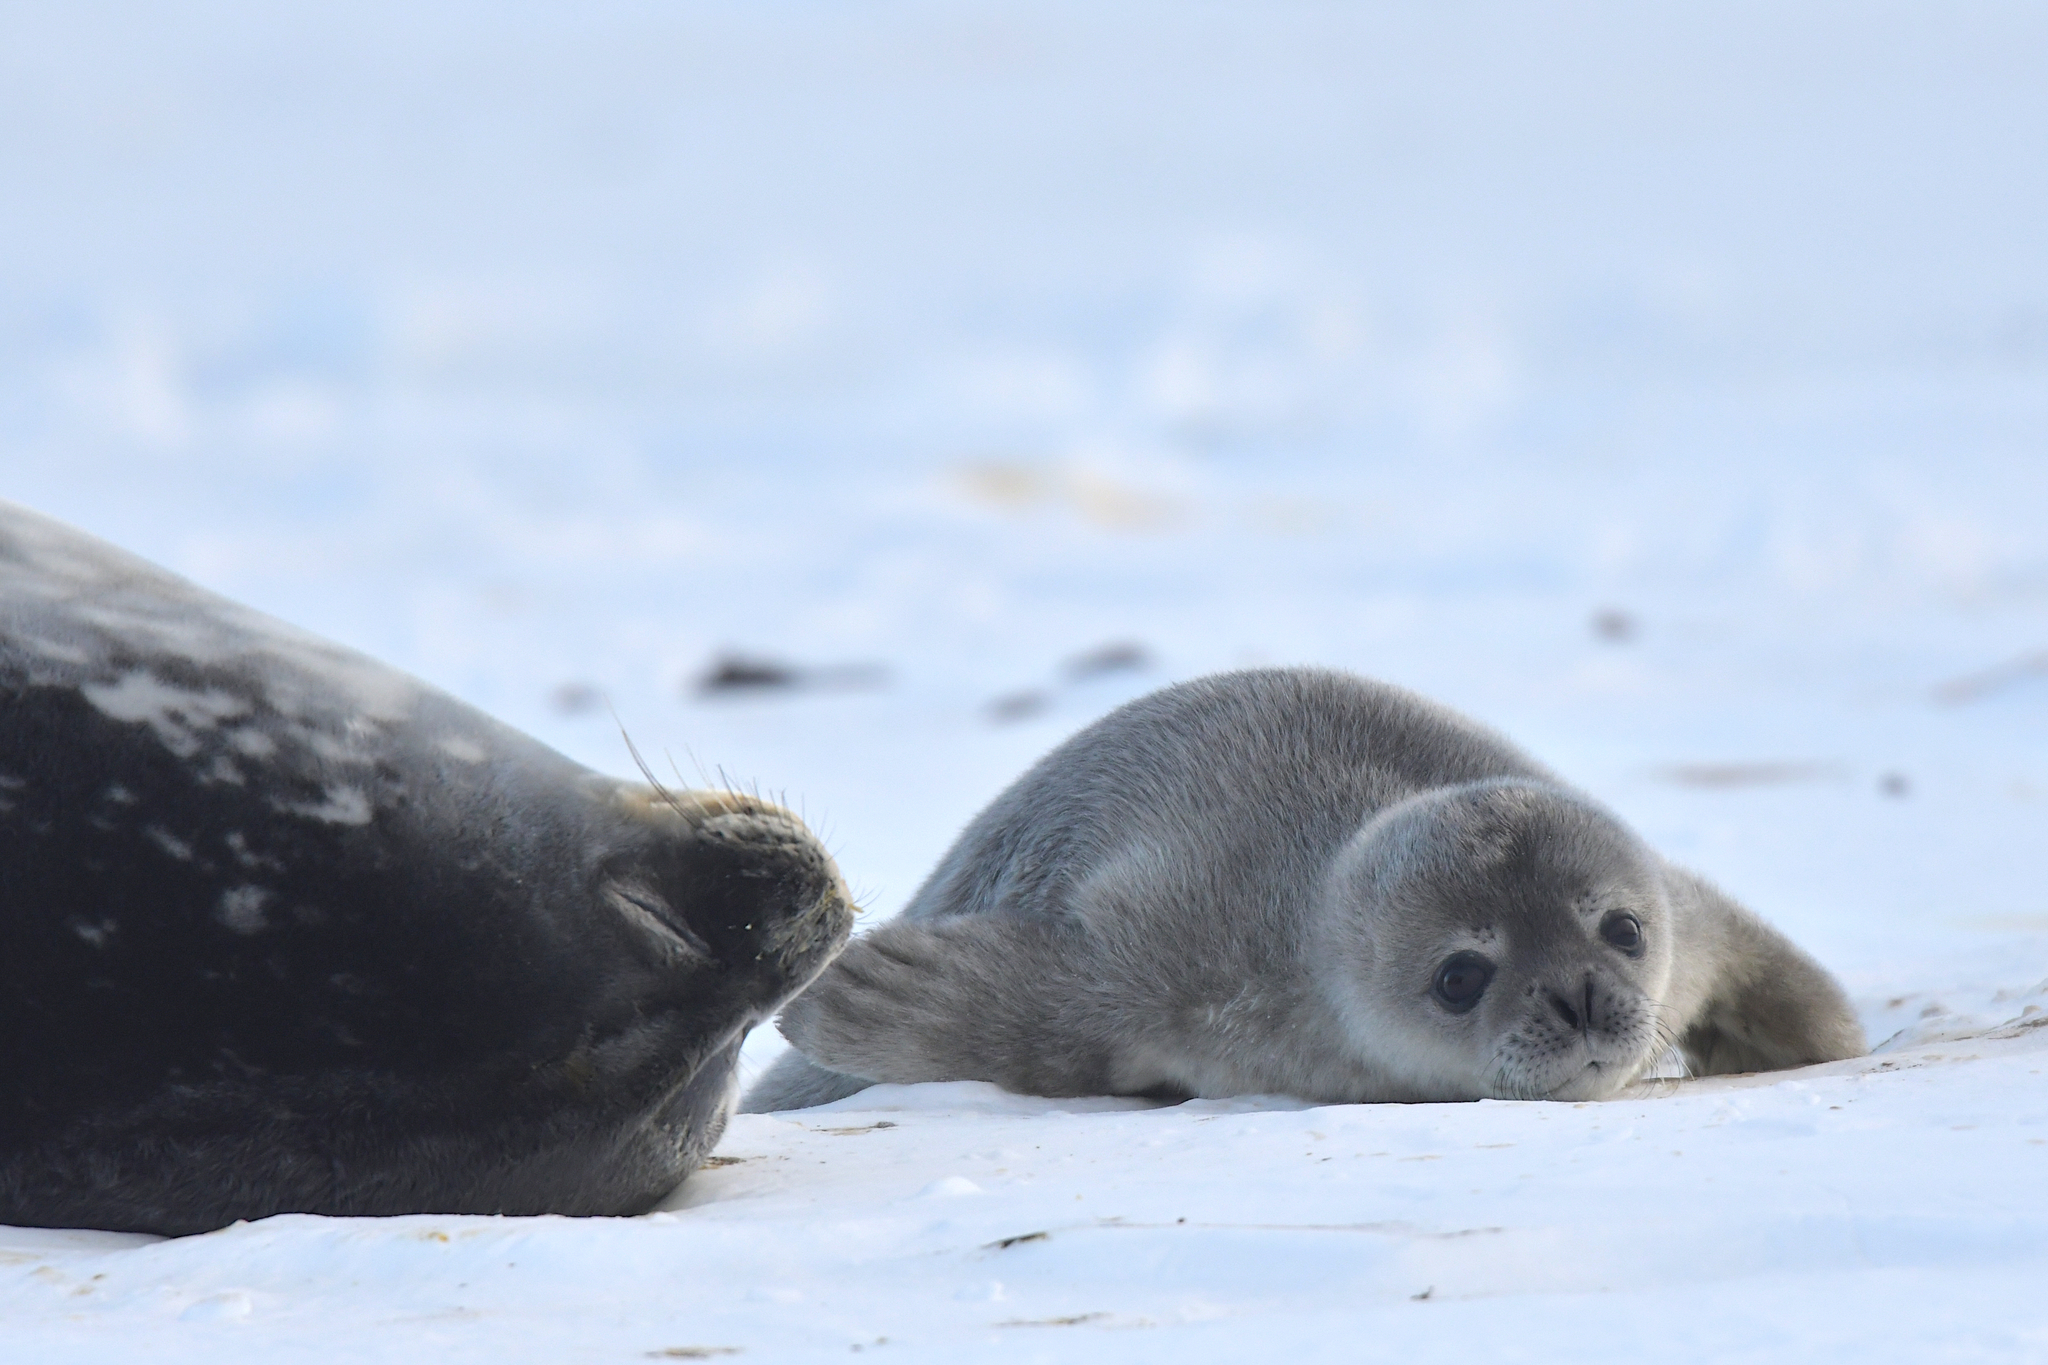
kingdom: Animalia
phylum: Chordata
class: Mammalia
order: Carnivora
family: Phocidae
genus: Leptonychotes
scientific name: Leptonychotes weddellii
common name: Weddell seal
